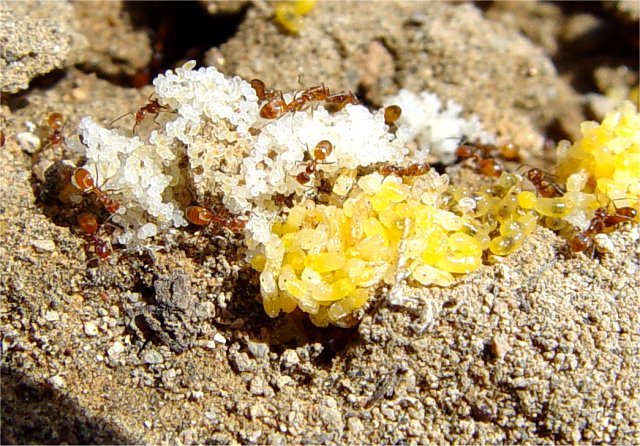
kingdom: Animalia
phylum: Arthropoda
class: Insecta
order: Hymenoptera
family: Formicidae
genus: Forelius
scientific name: Forelius pruinosus
